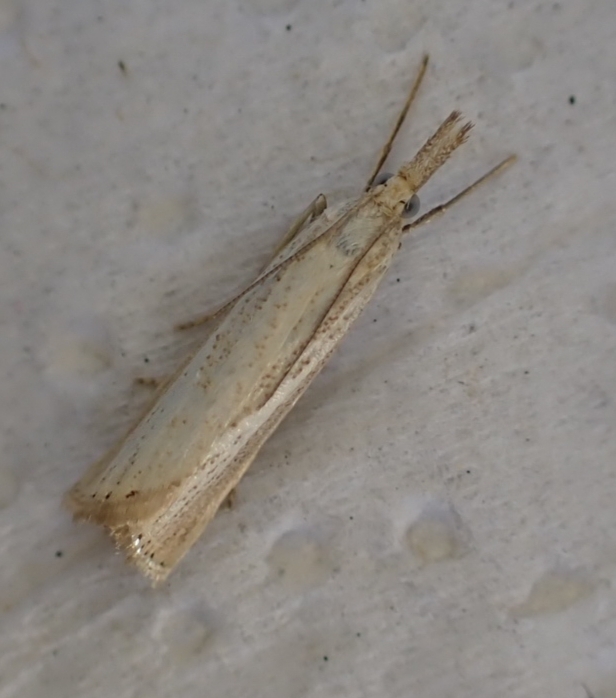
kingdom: Animalia
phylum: Arthropoda
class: Insecta
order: Lepidoptera
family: Crambidae
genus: Agriphila
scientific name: Agriphila straminella
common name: Straw grass-veneer
